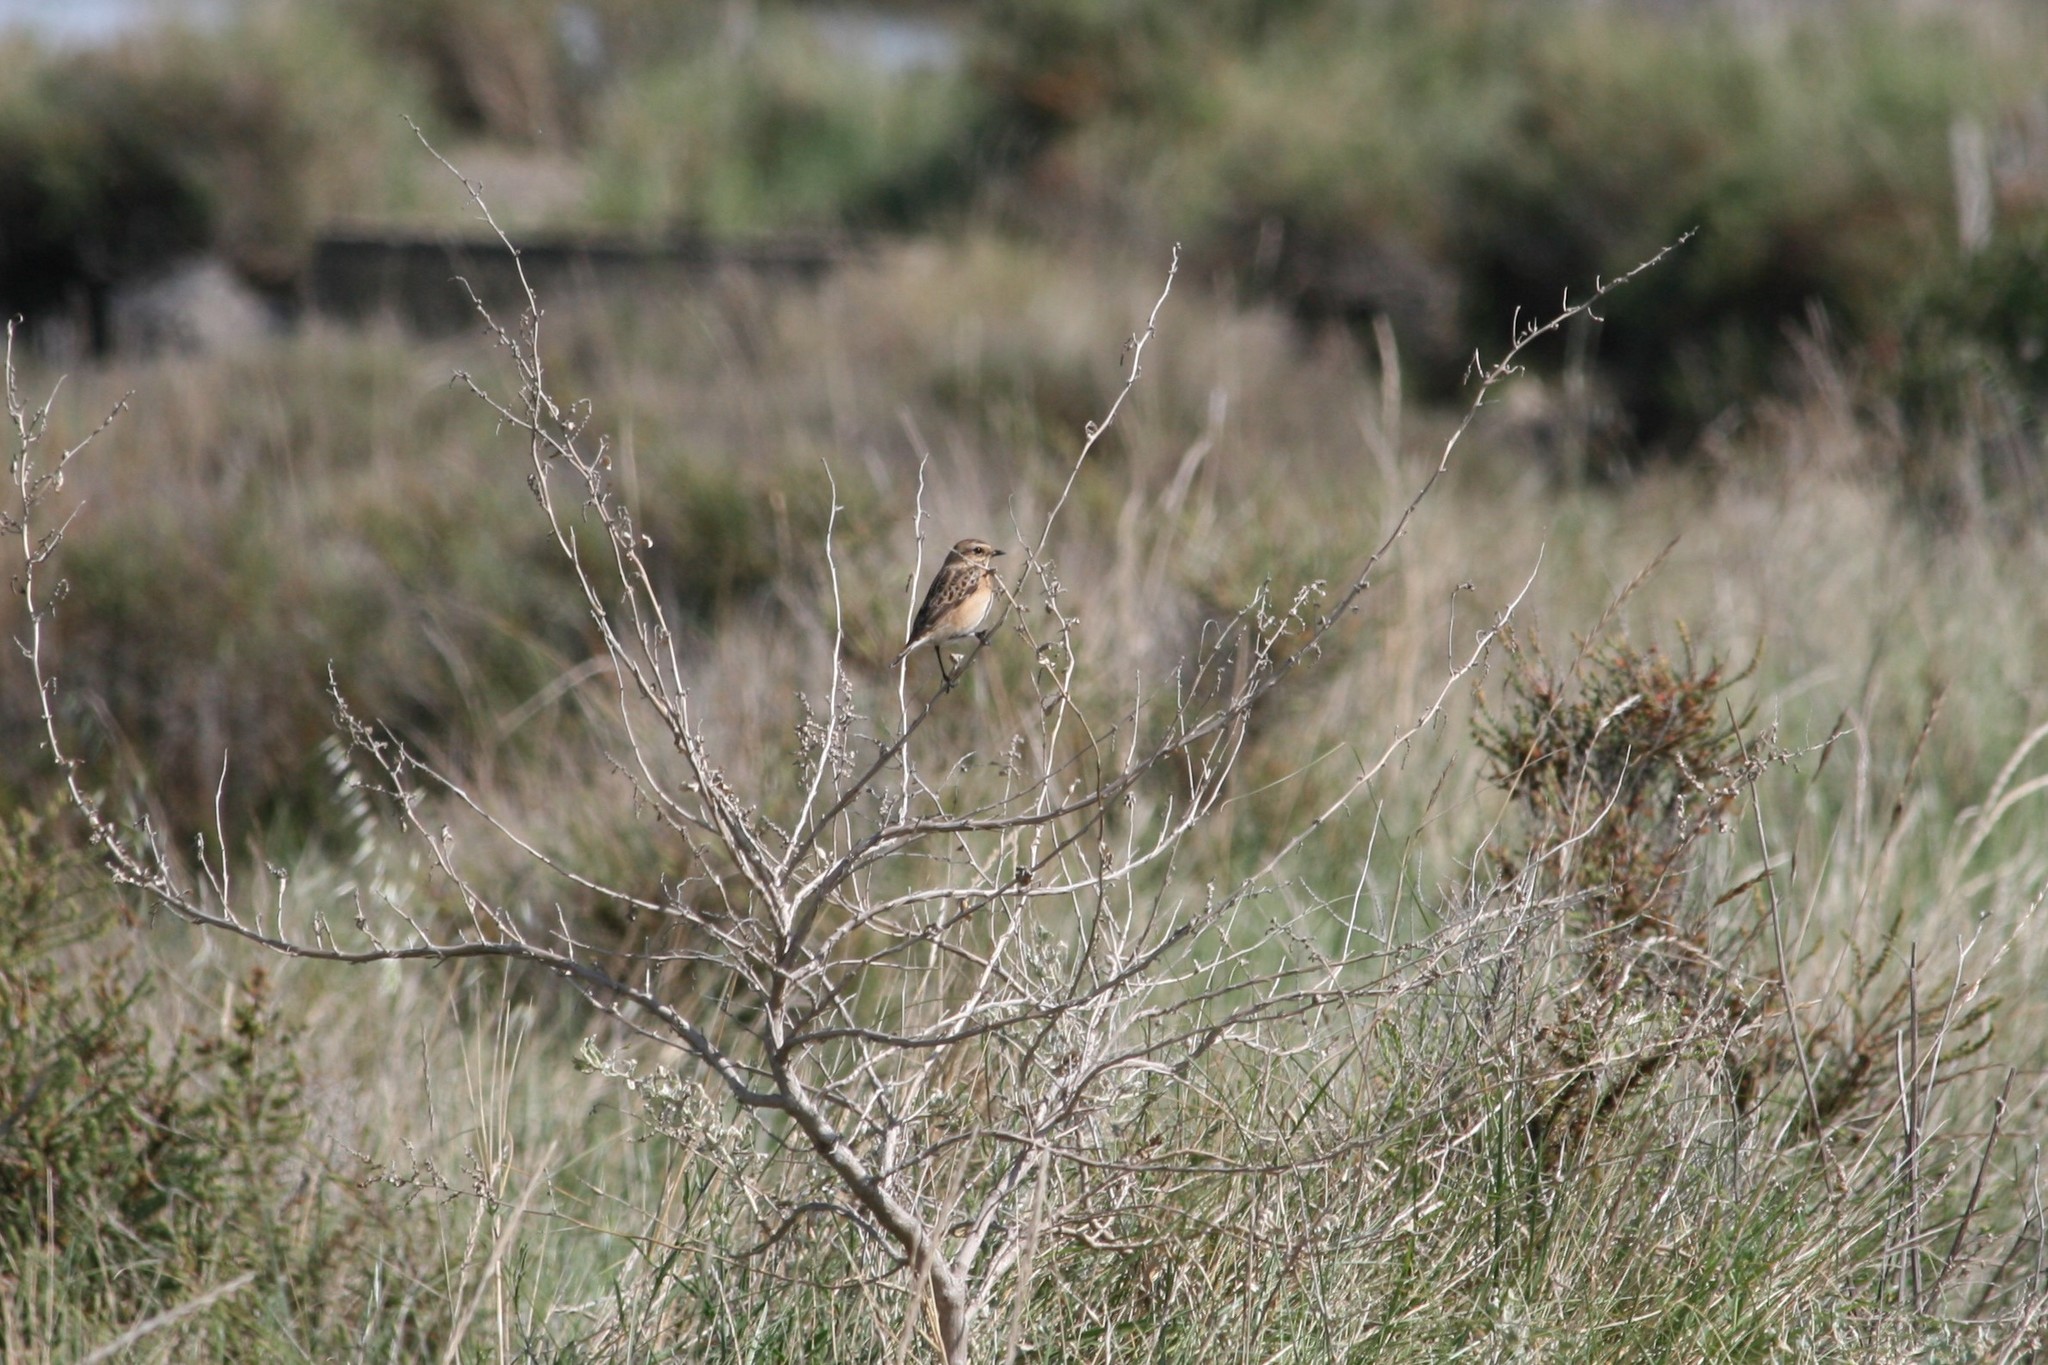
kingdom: Animalia
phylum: Chordata
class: Aves
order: Passeriformes
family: Muscicapidae
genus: Saxicola
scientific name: Saxicola rubetra
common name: Whinchat
